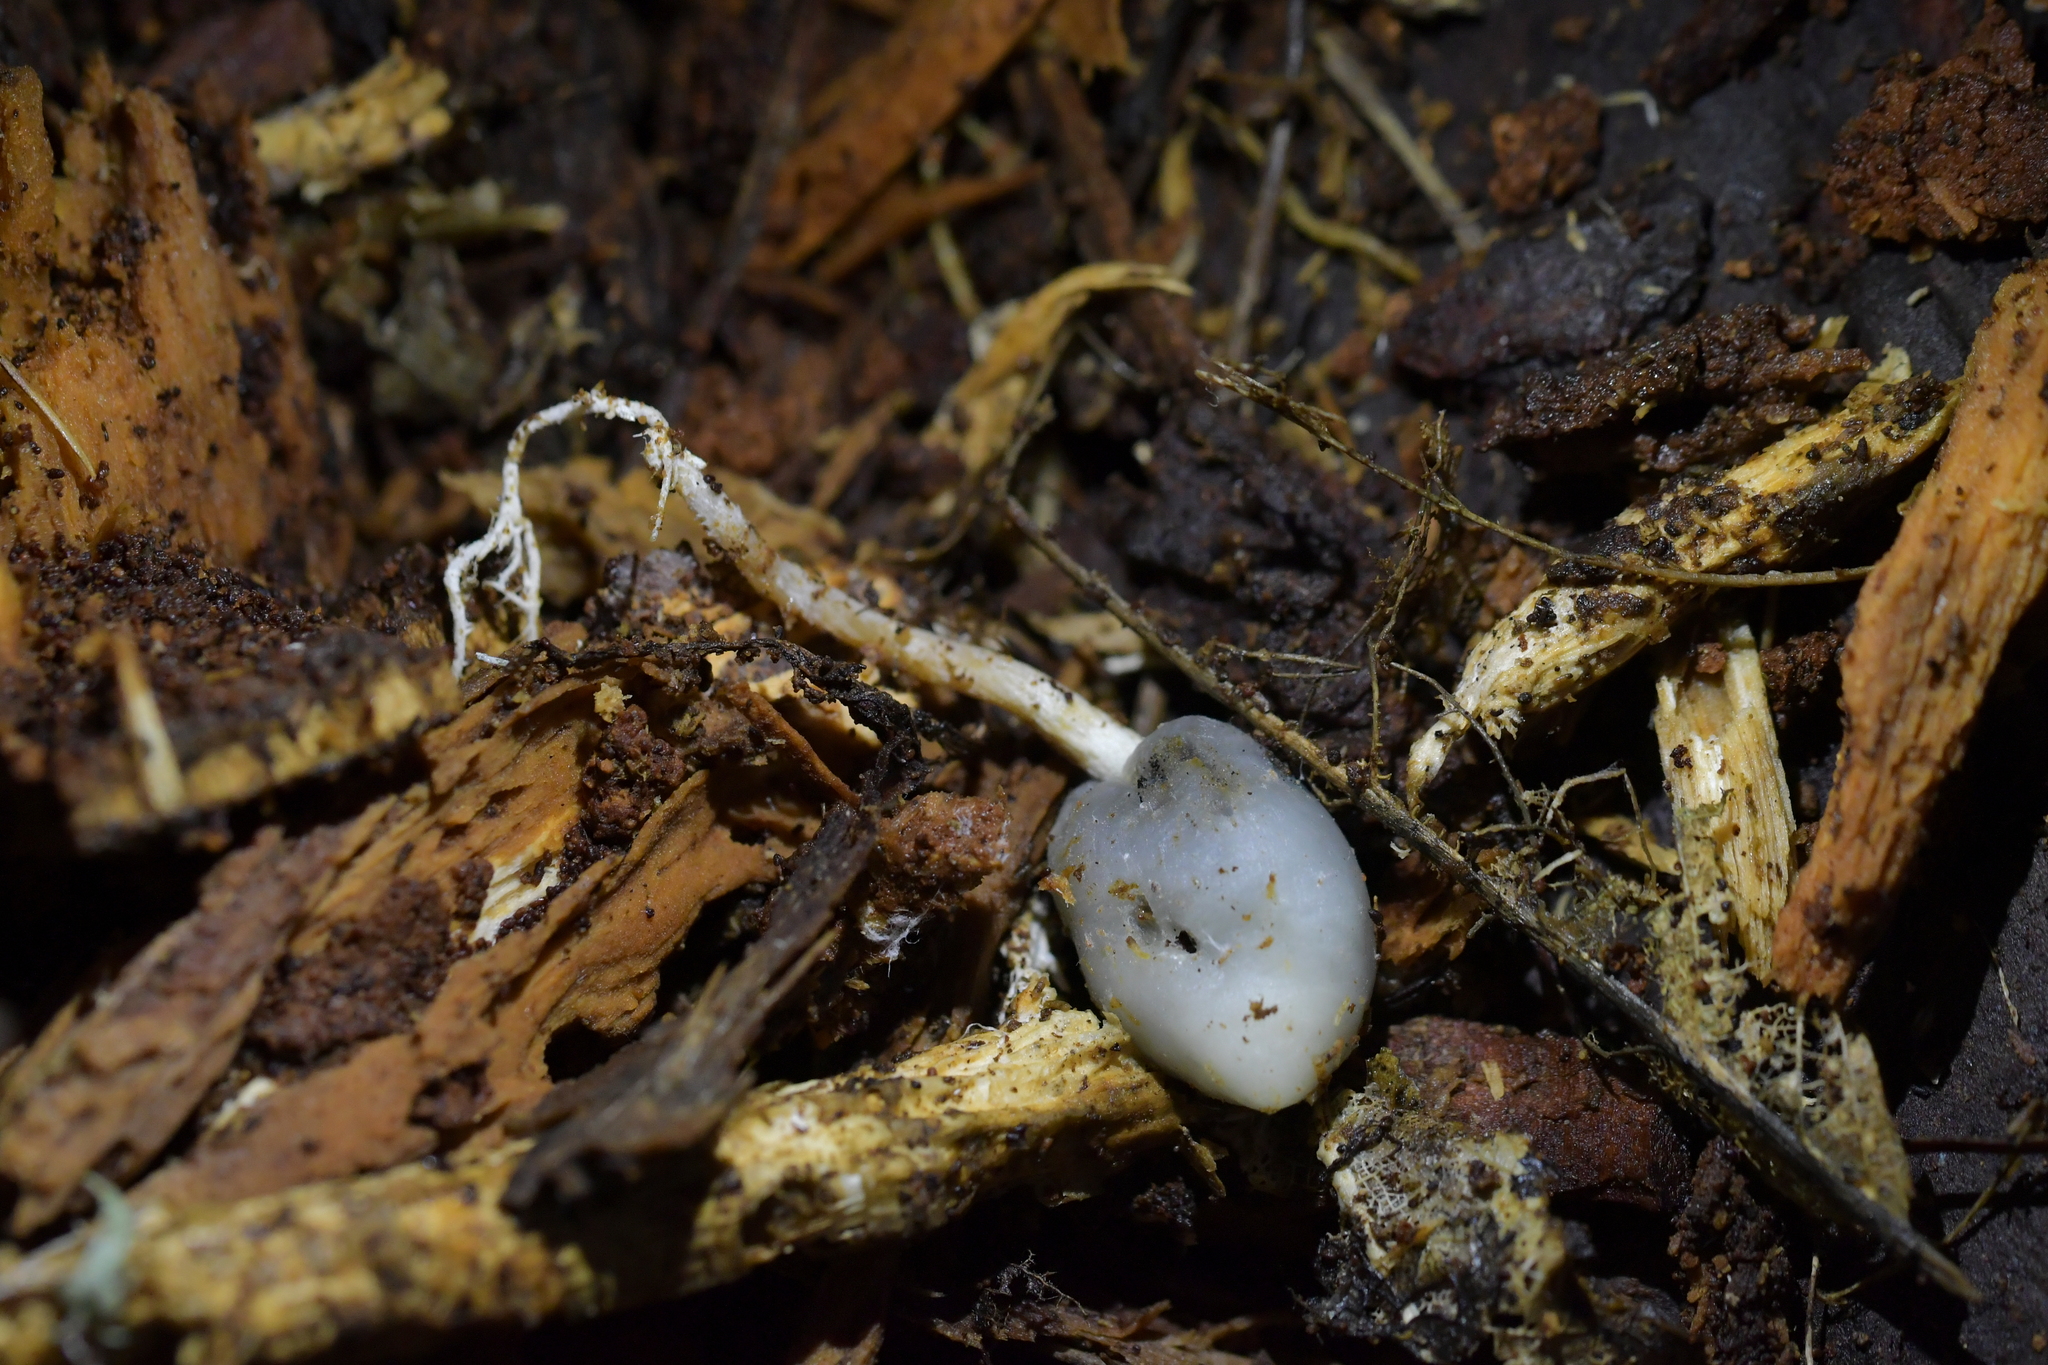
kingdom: Fungi
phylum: Basidiomycota
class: Agaricomycetes
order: Agaricales
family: Hymenogastraceae
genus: Psilocybe
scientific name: Psilocybe weraroa
